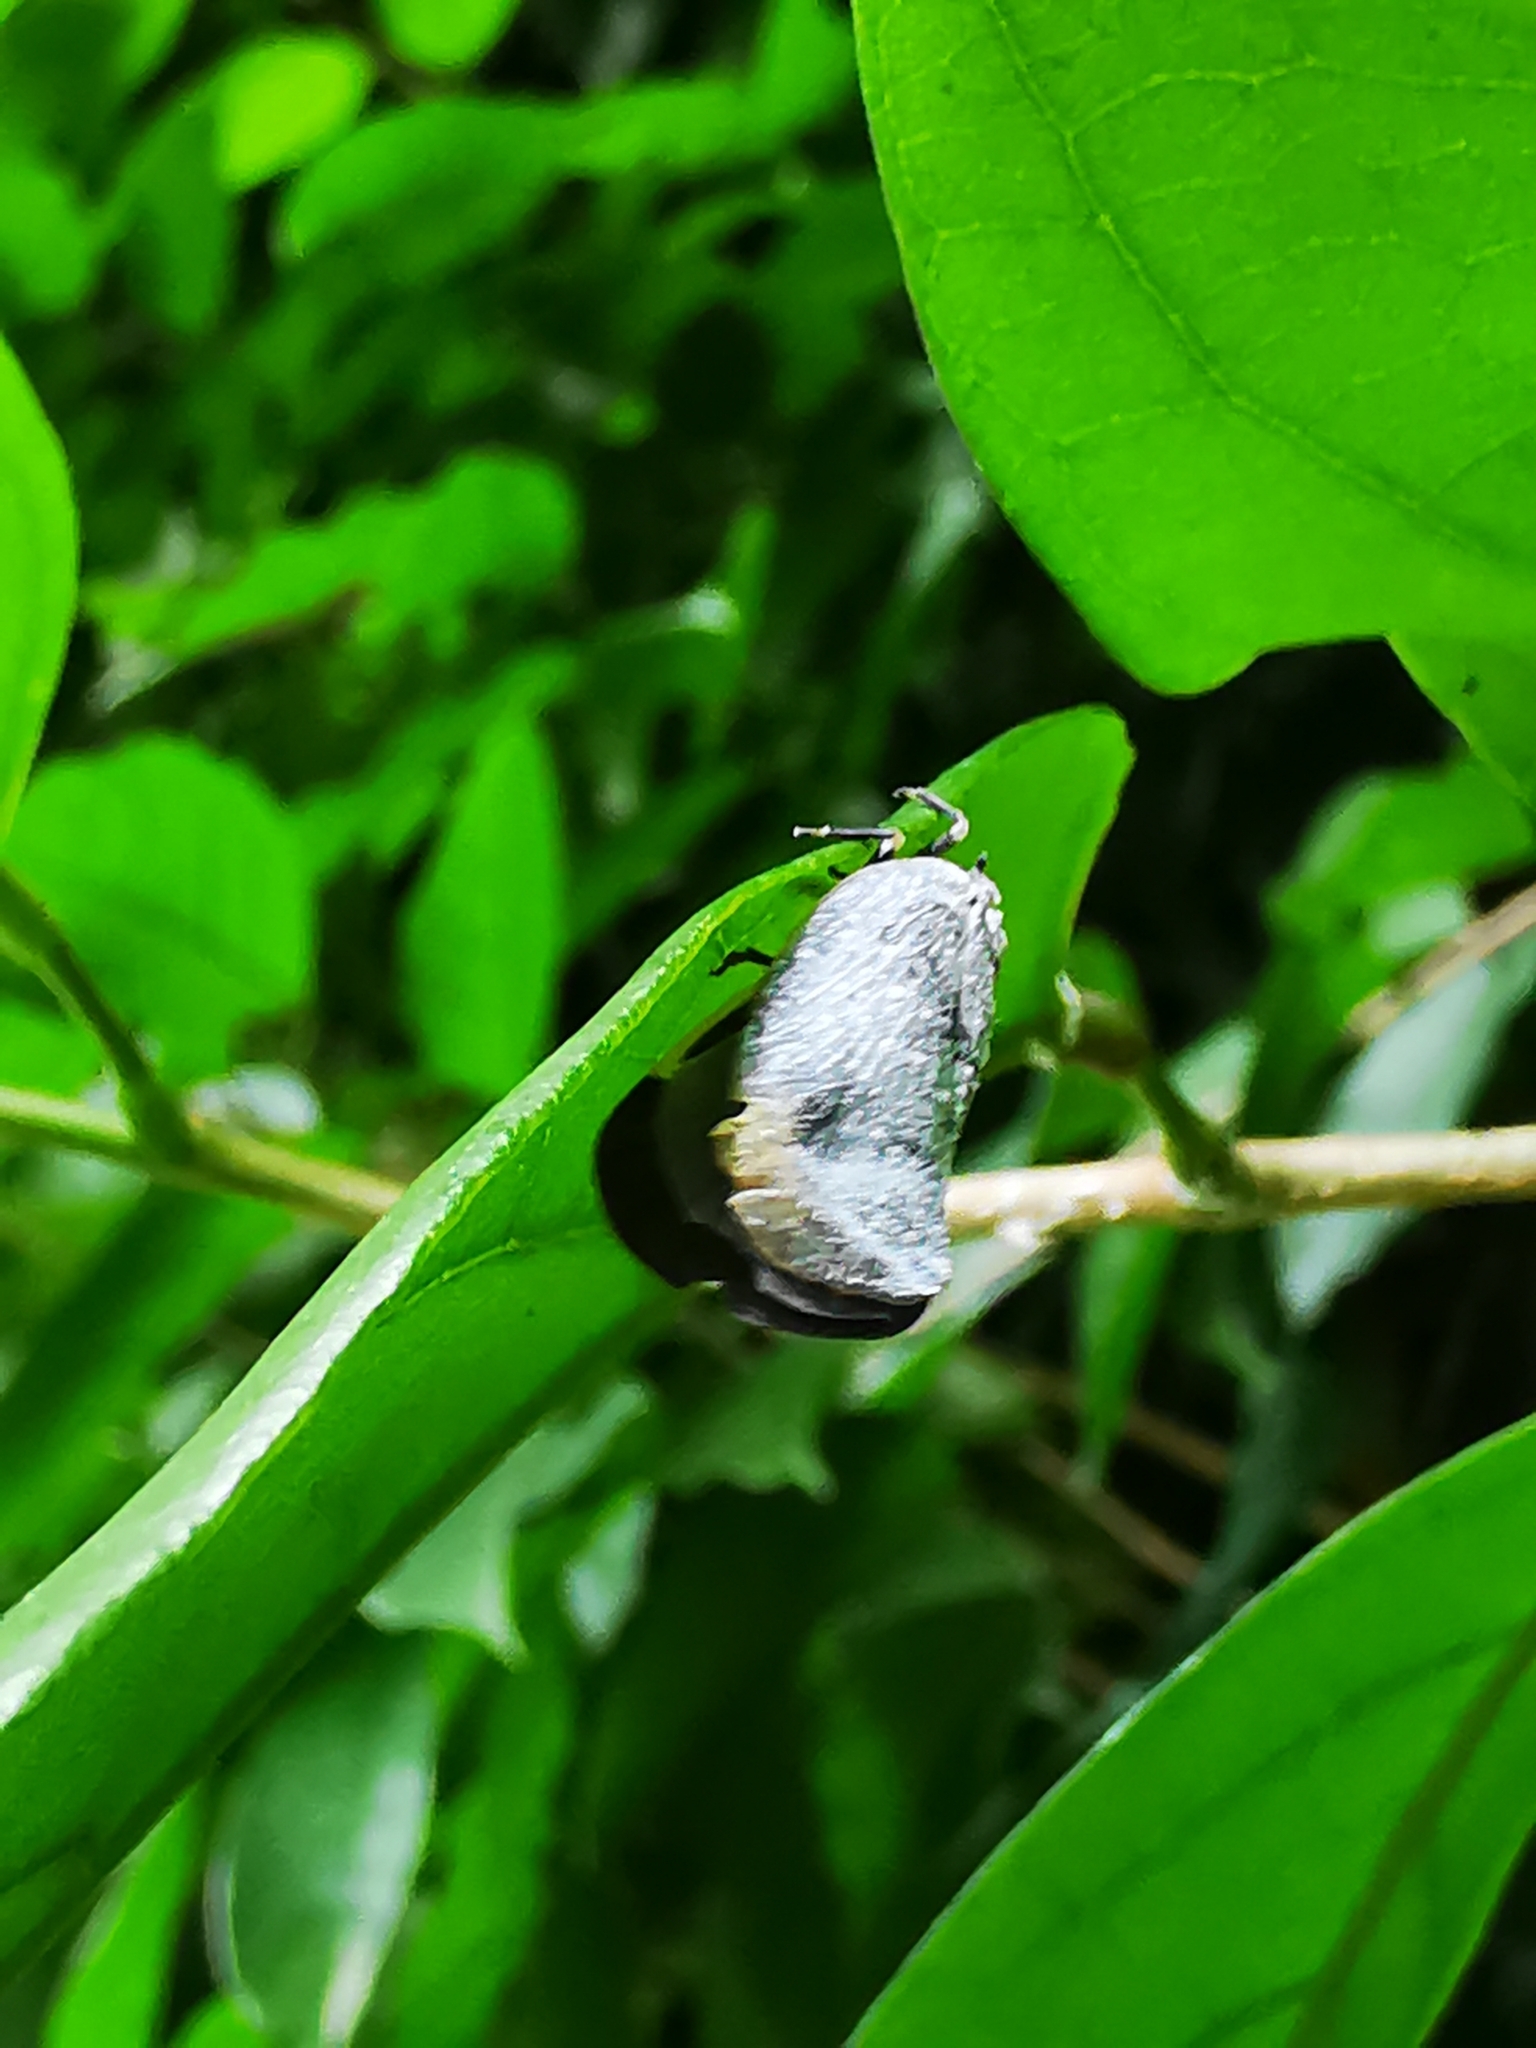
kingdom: Animalia
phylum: Arthropoda
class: Insecta
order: Hemiptera
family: Flatidae
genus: Bythopsyrna
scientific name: Bythopsyrna tineoides
